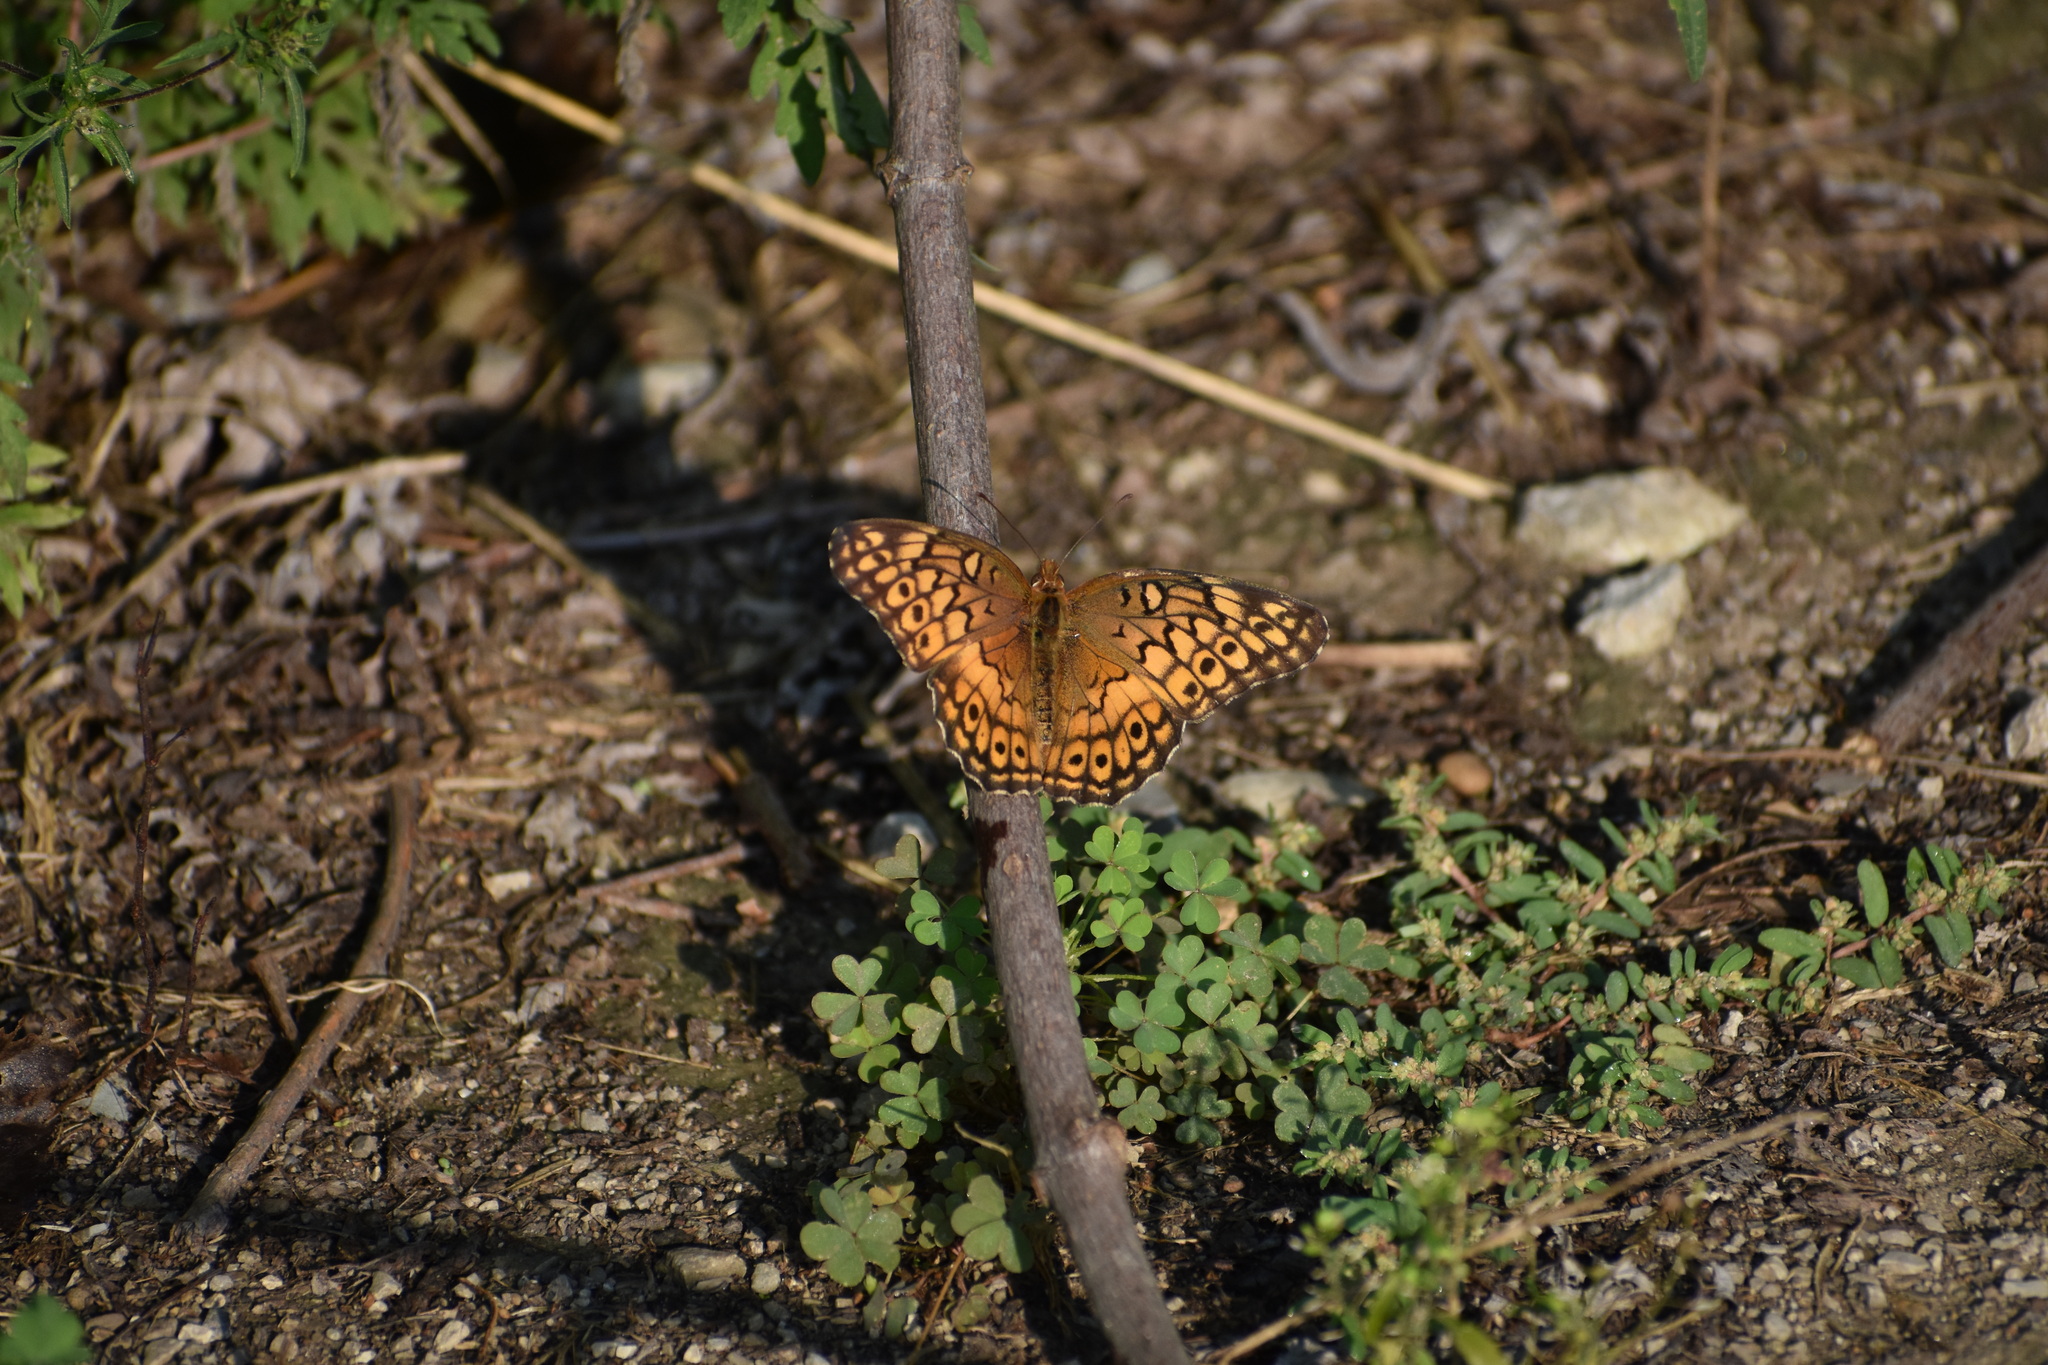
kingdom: Animalia
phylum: Arthropoda
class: Insecta
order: Lepidoptera
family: Nymphalidae
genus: Euptoieta
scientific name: Euptoieta claudia
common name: Variegated fritillary
